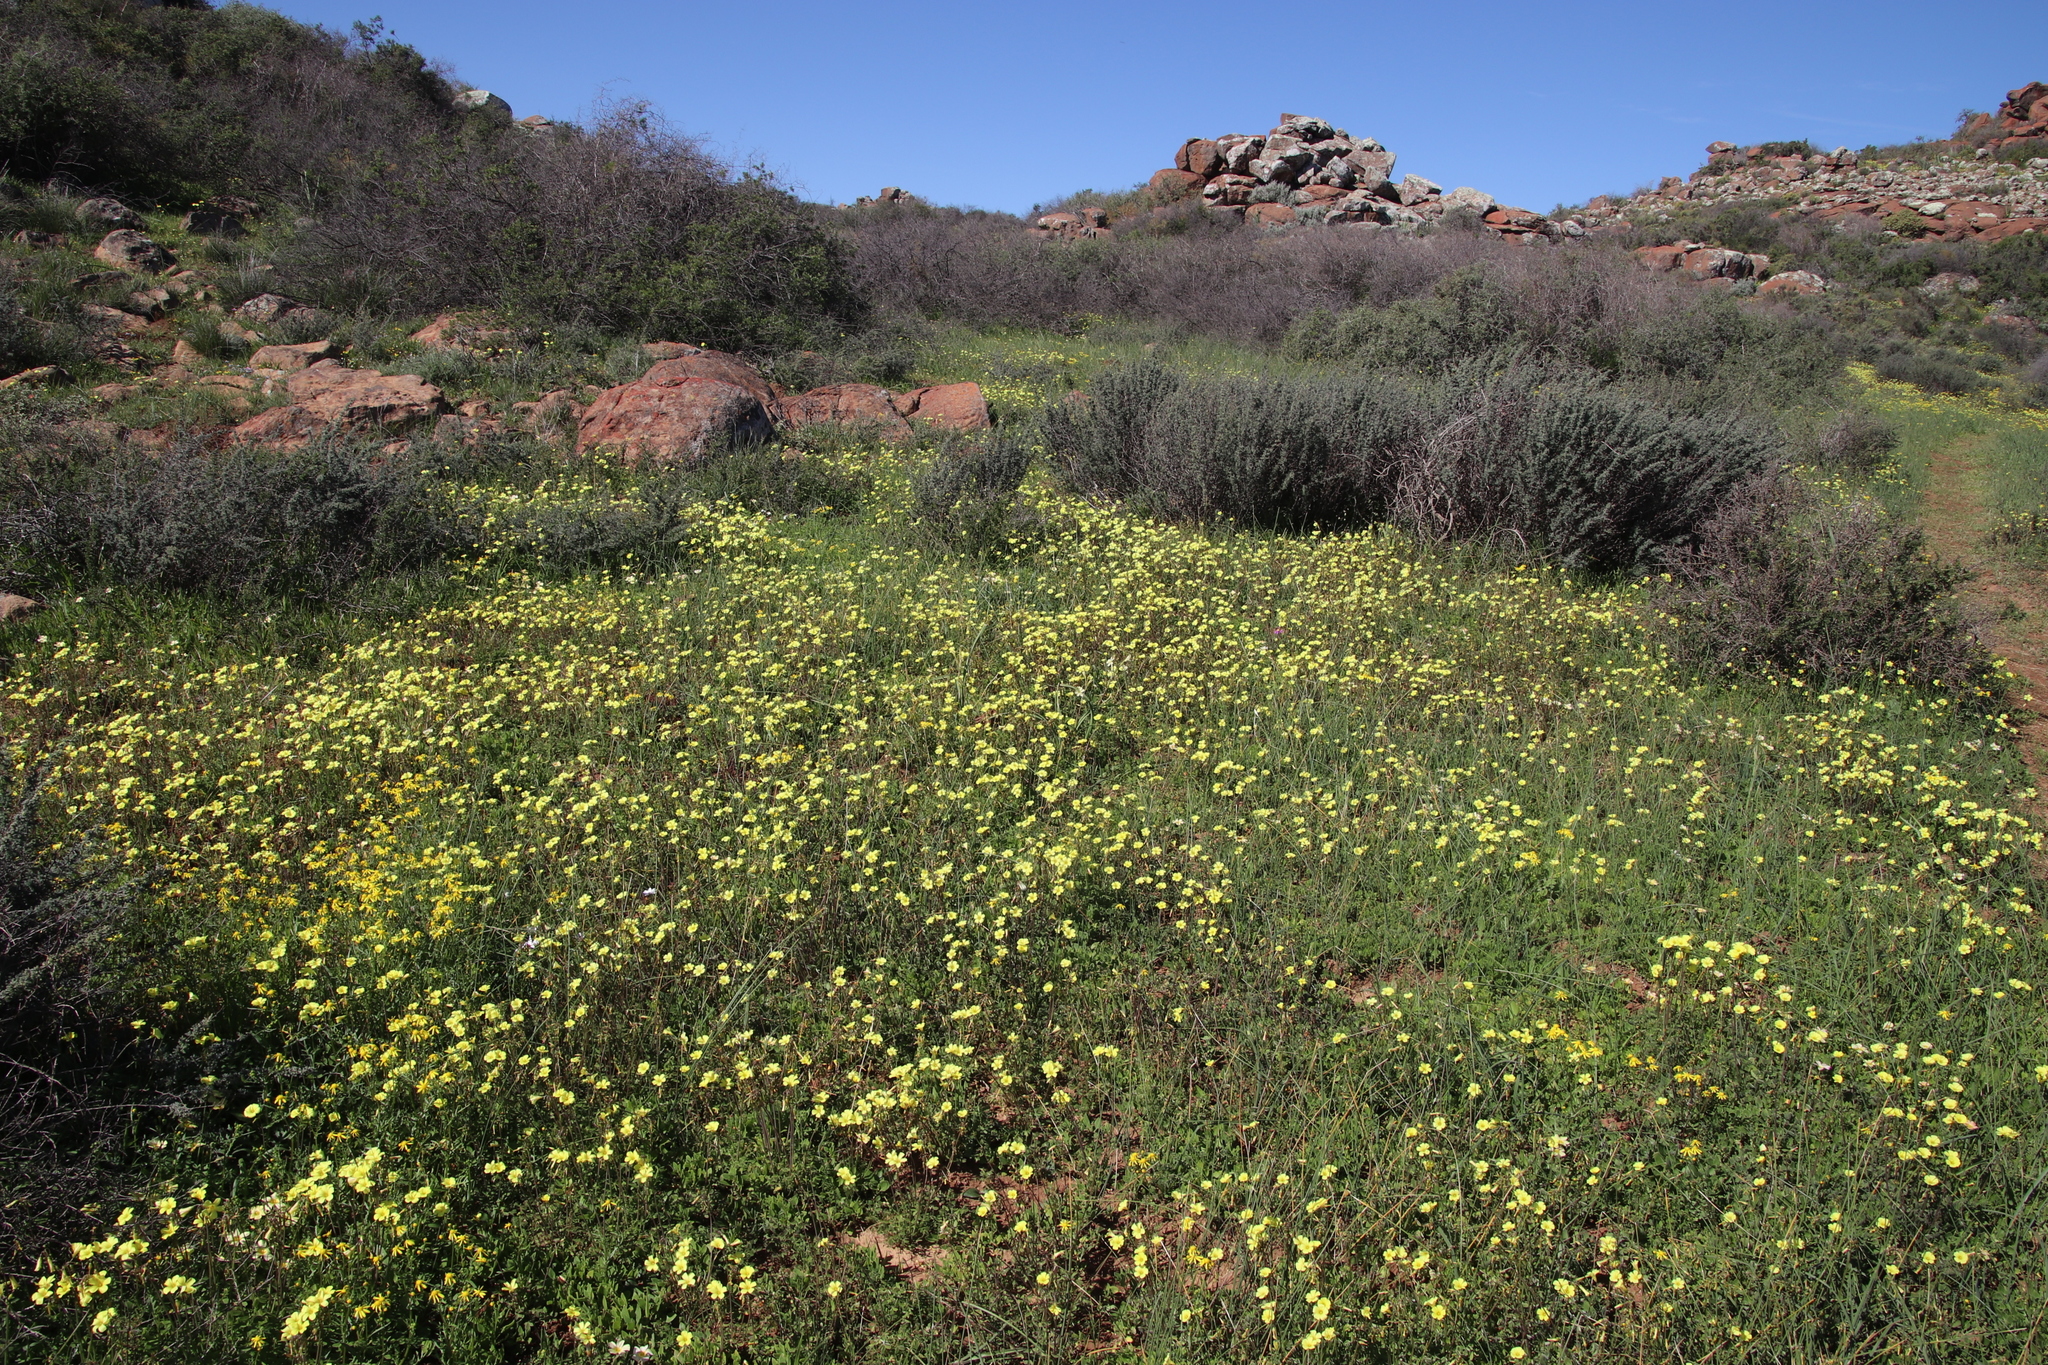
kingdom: Plantae
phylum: Tracheophyta
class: Magnoliopsida
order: Oxalidales
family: Oxalidaceae
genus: Oxalis
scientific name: Oxalis pes-caprae
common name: Bermuda-buttercup
